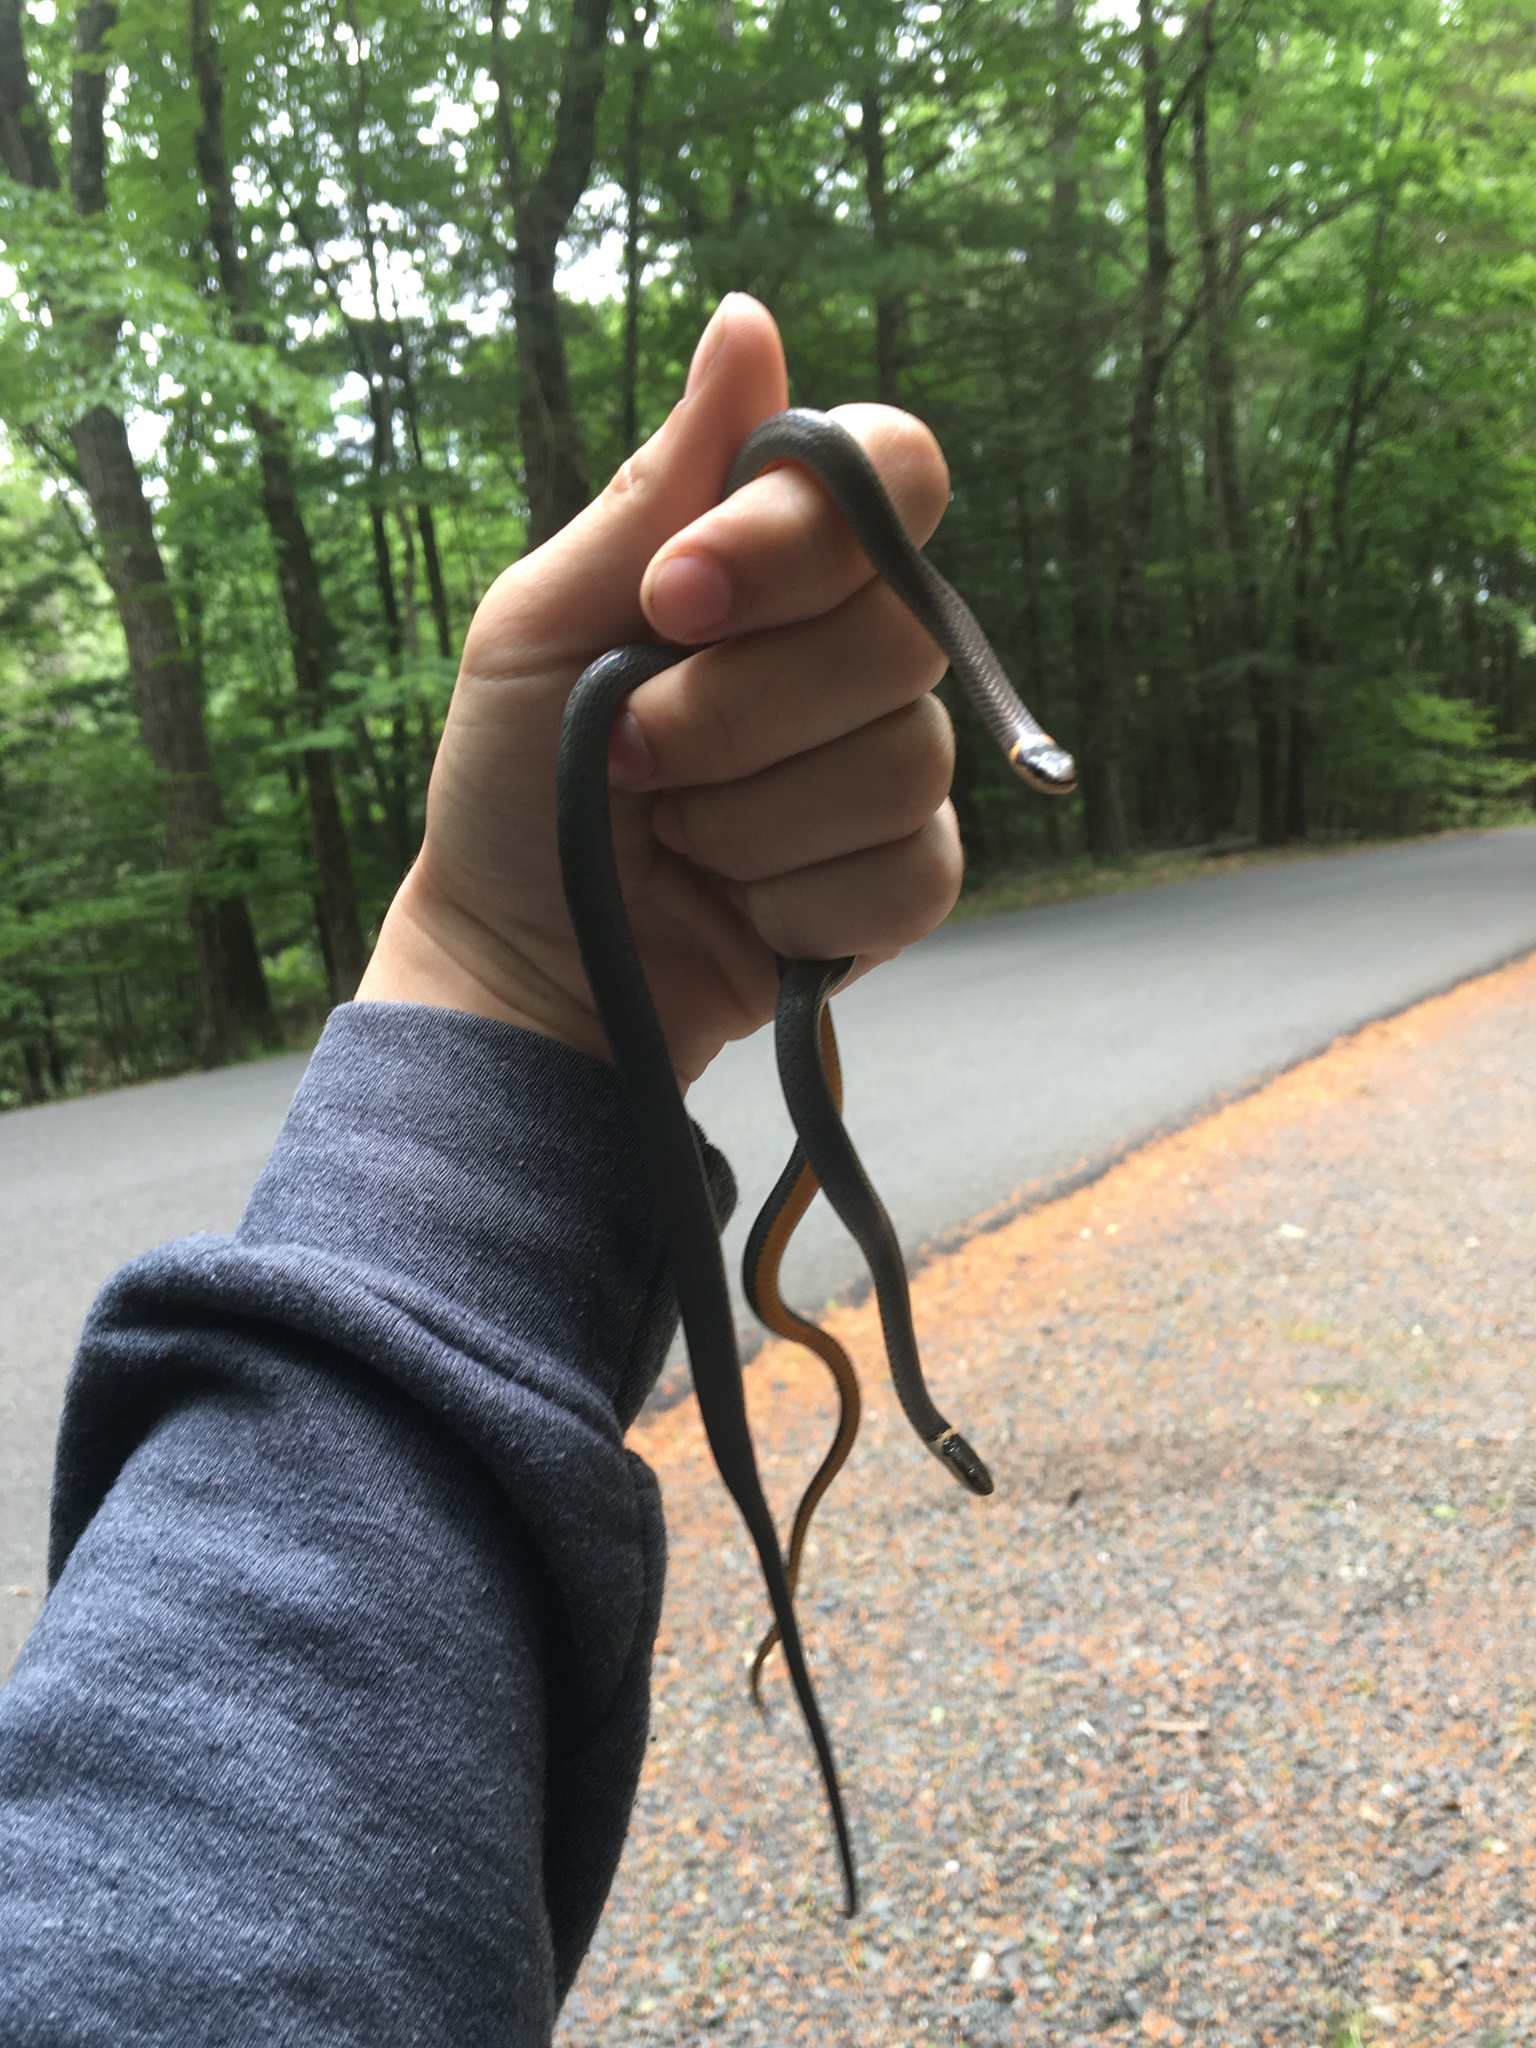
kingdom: Animalia
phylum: Chordata
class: Squamata
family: Colubridae
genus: Diadophis
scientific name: Diadophis punctatus
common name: Ringneck snake
